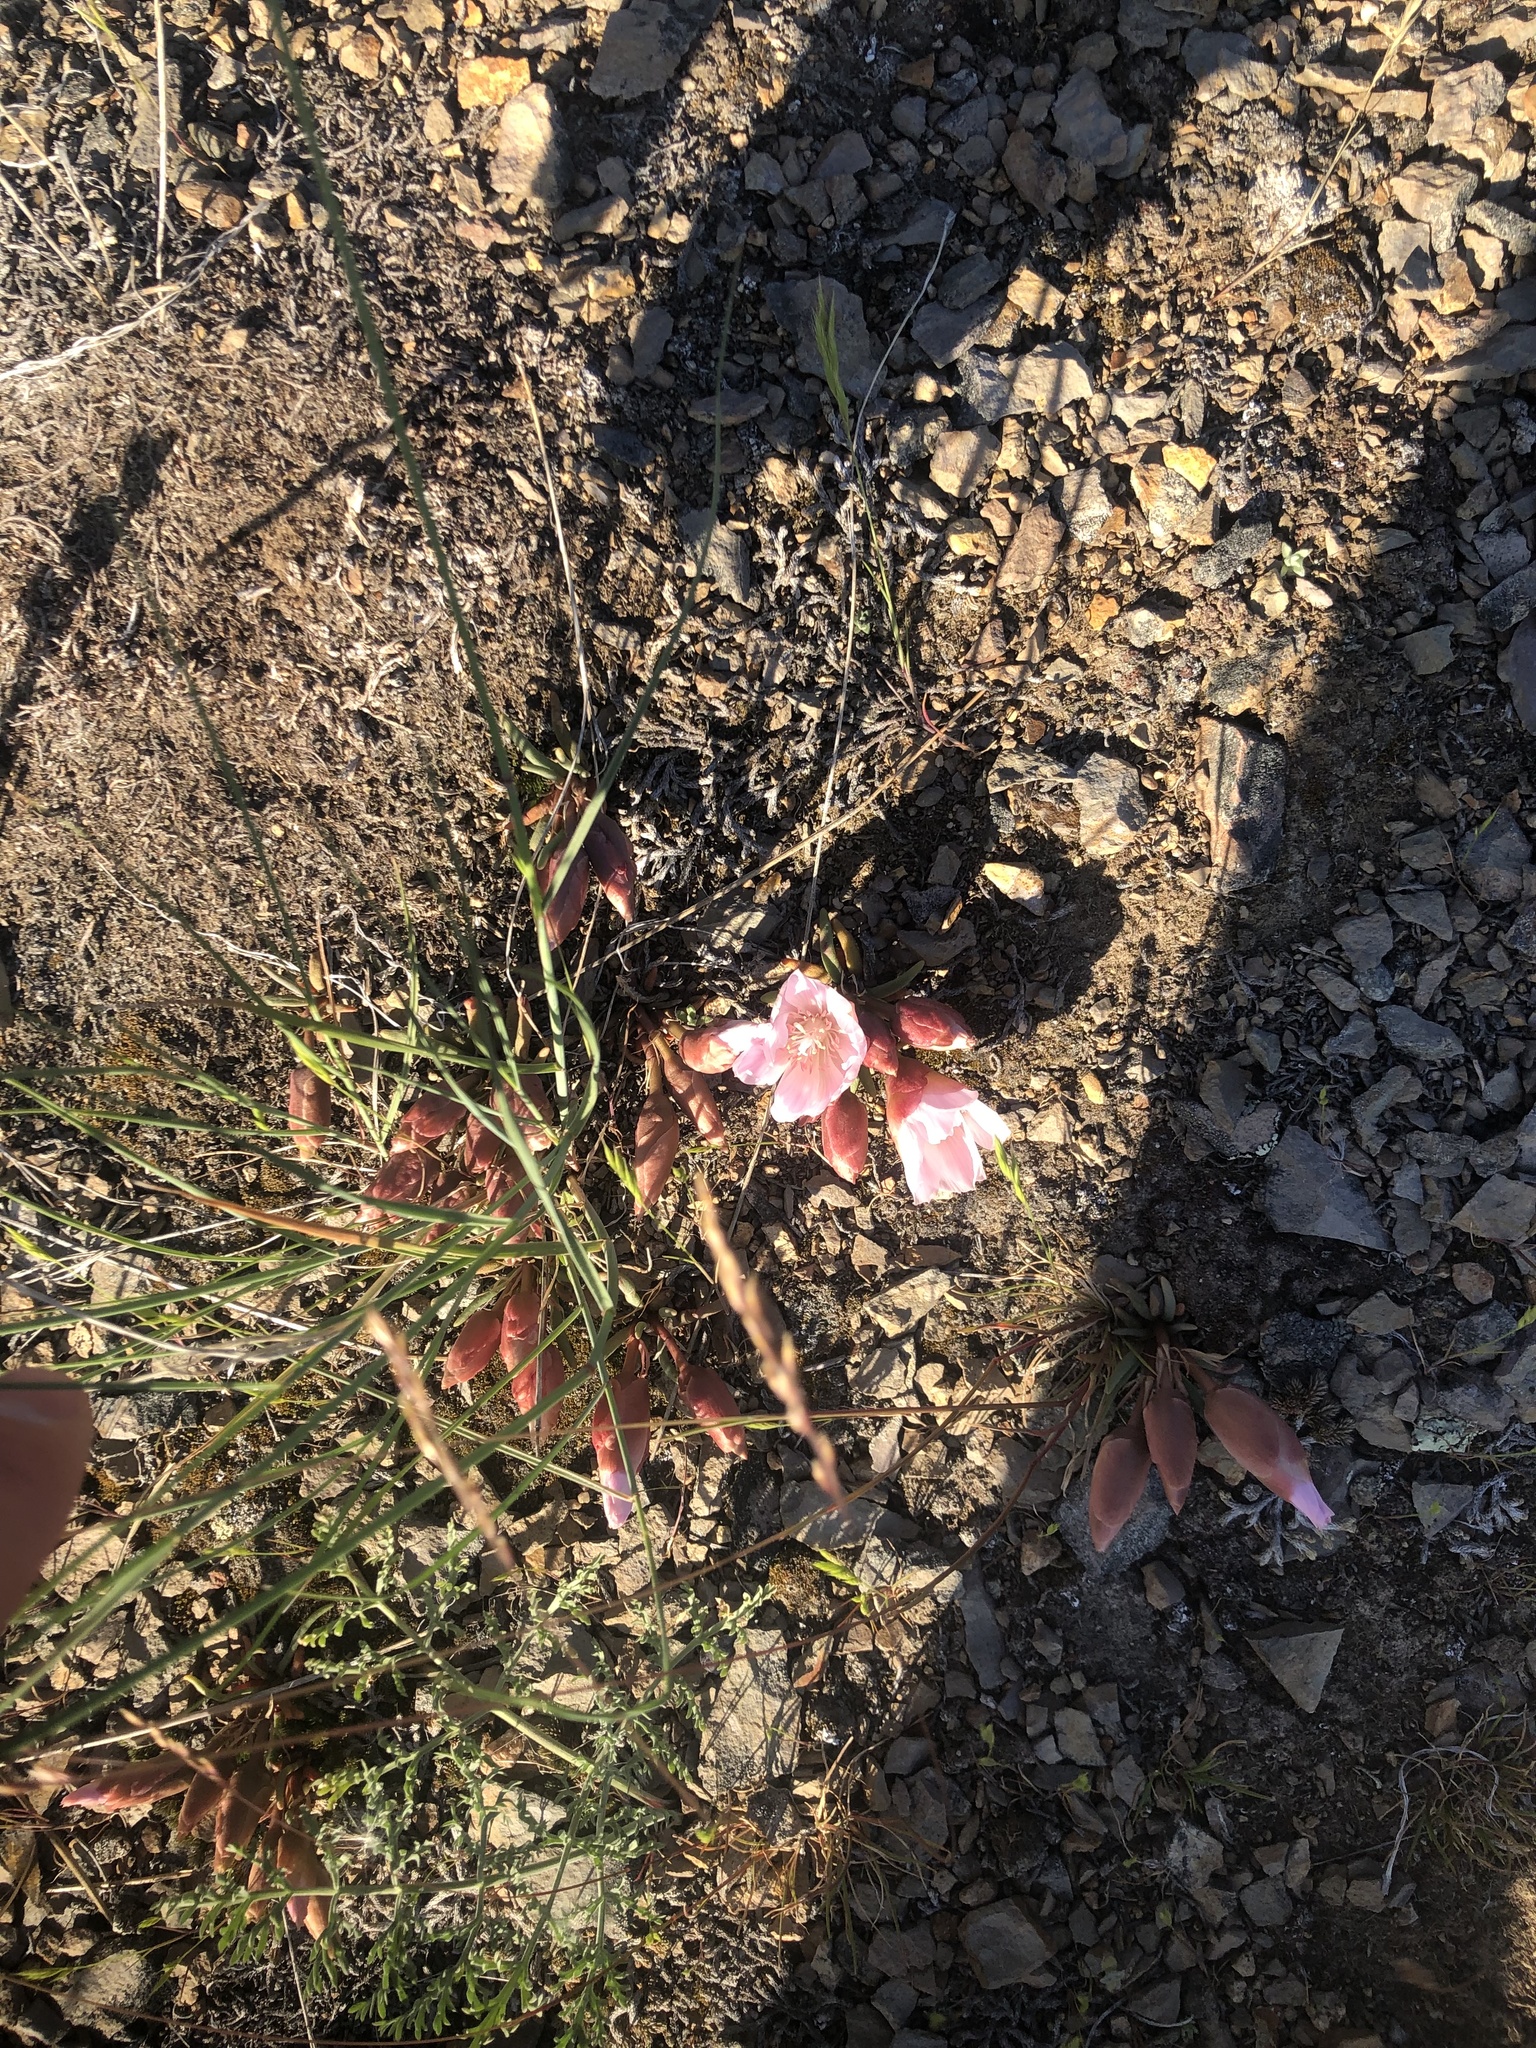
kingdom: Plantae
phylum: Tracheophyta
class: Magnoliopsida
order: Caryophyllales
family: Montiaceae
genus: Lewisia
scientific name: Lewisia rediviva
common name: Bitter-root
